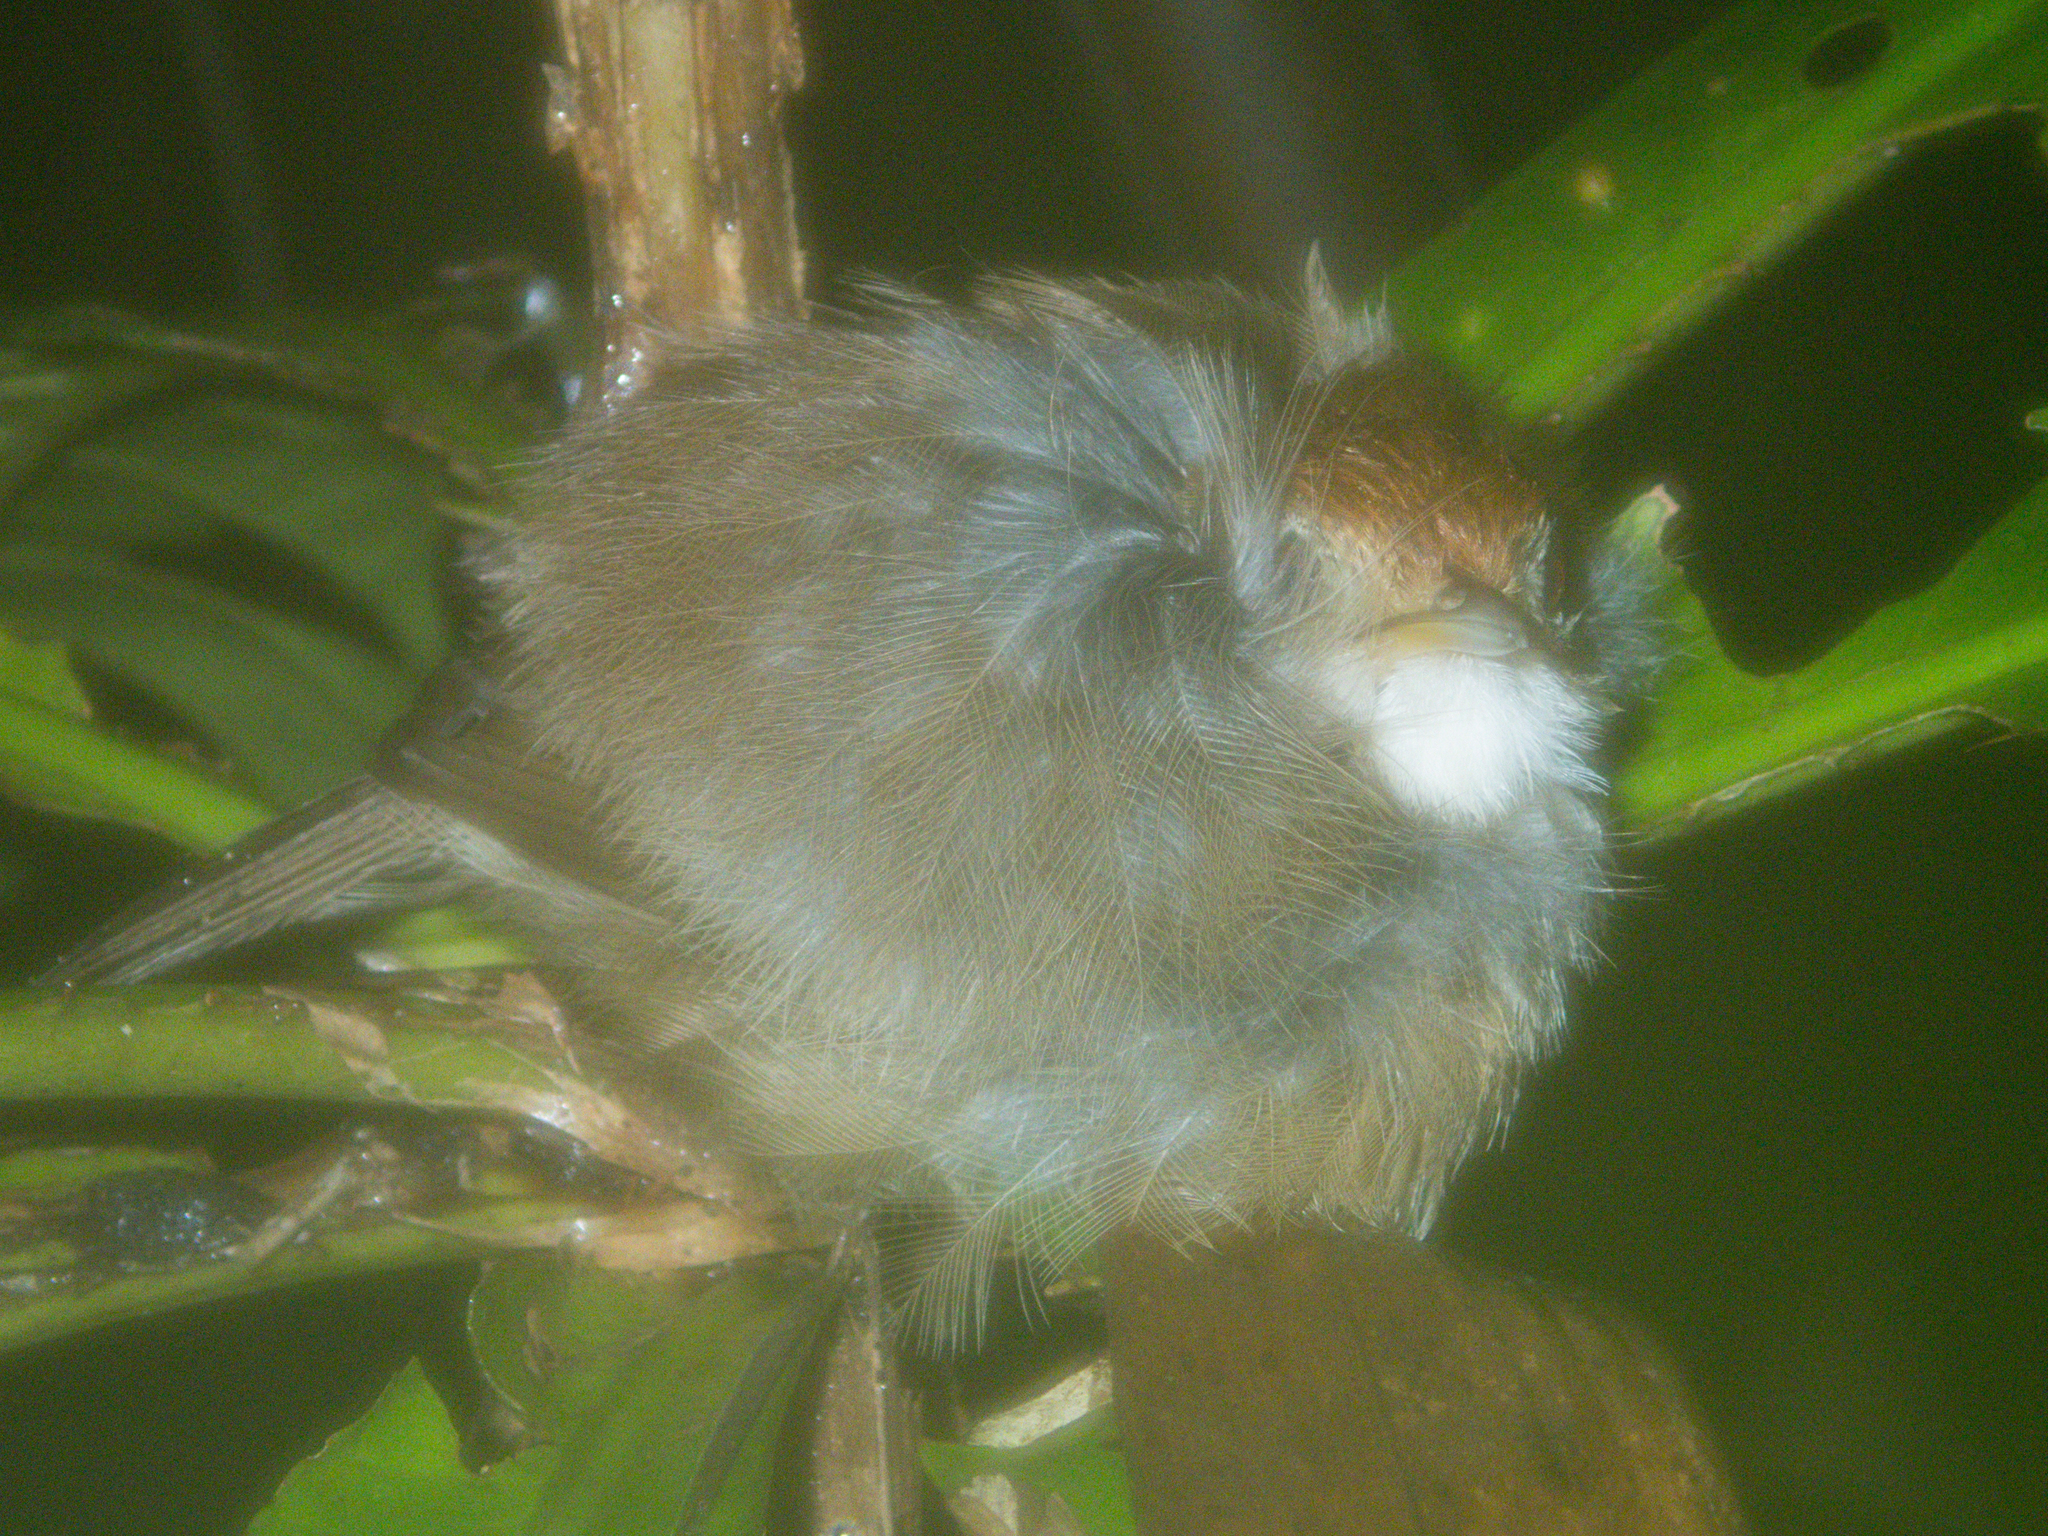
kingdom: Animalia
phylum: Chordata
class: Aves
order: Passeriformes
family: Pellorneidae
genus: Pellorneum
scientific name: Pellorneum ruficeps
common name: Puff-throated babbler
